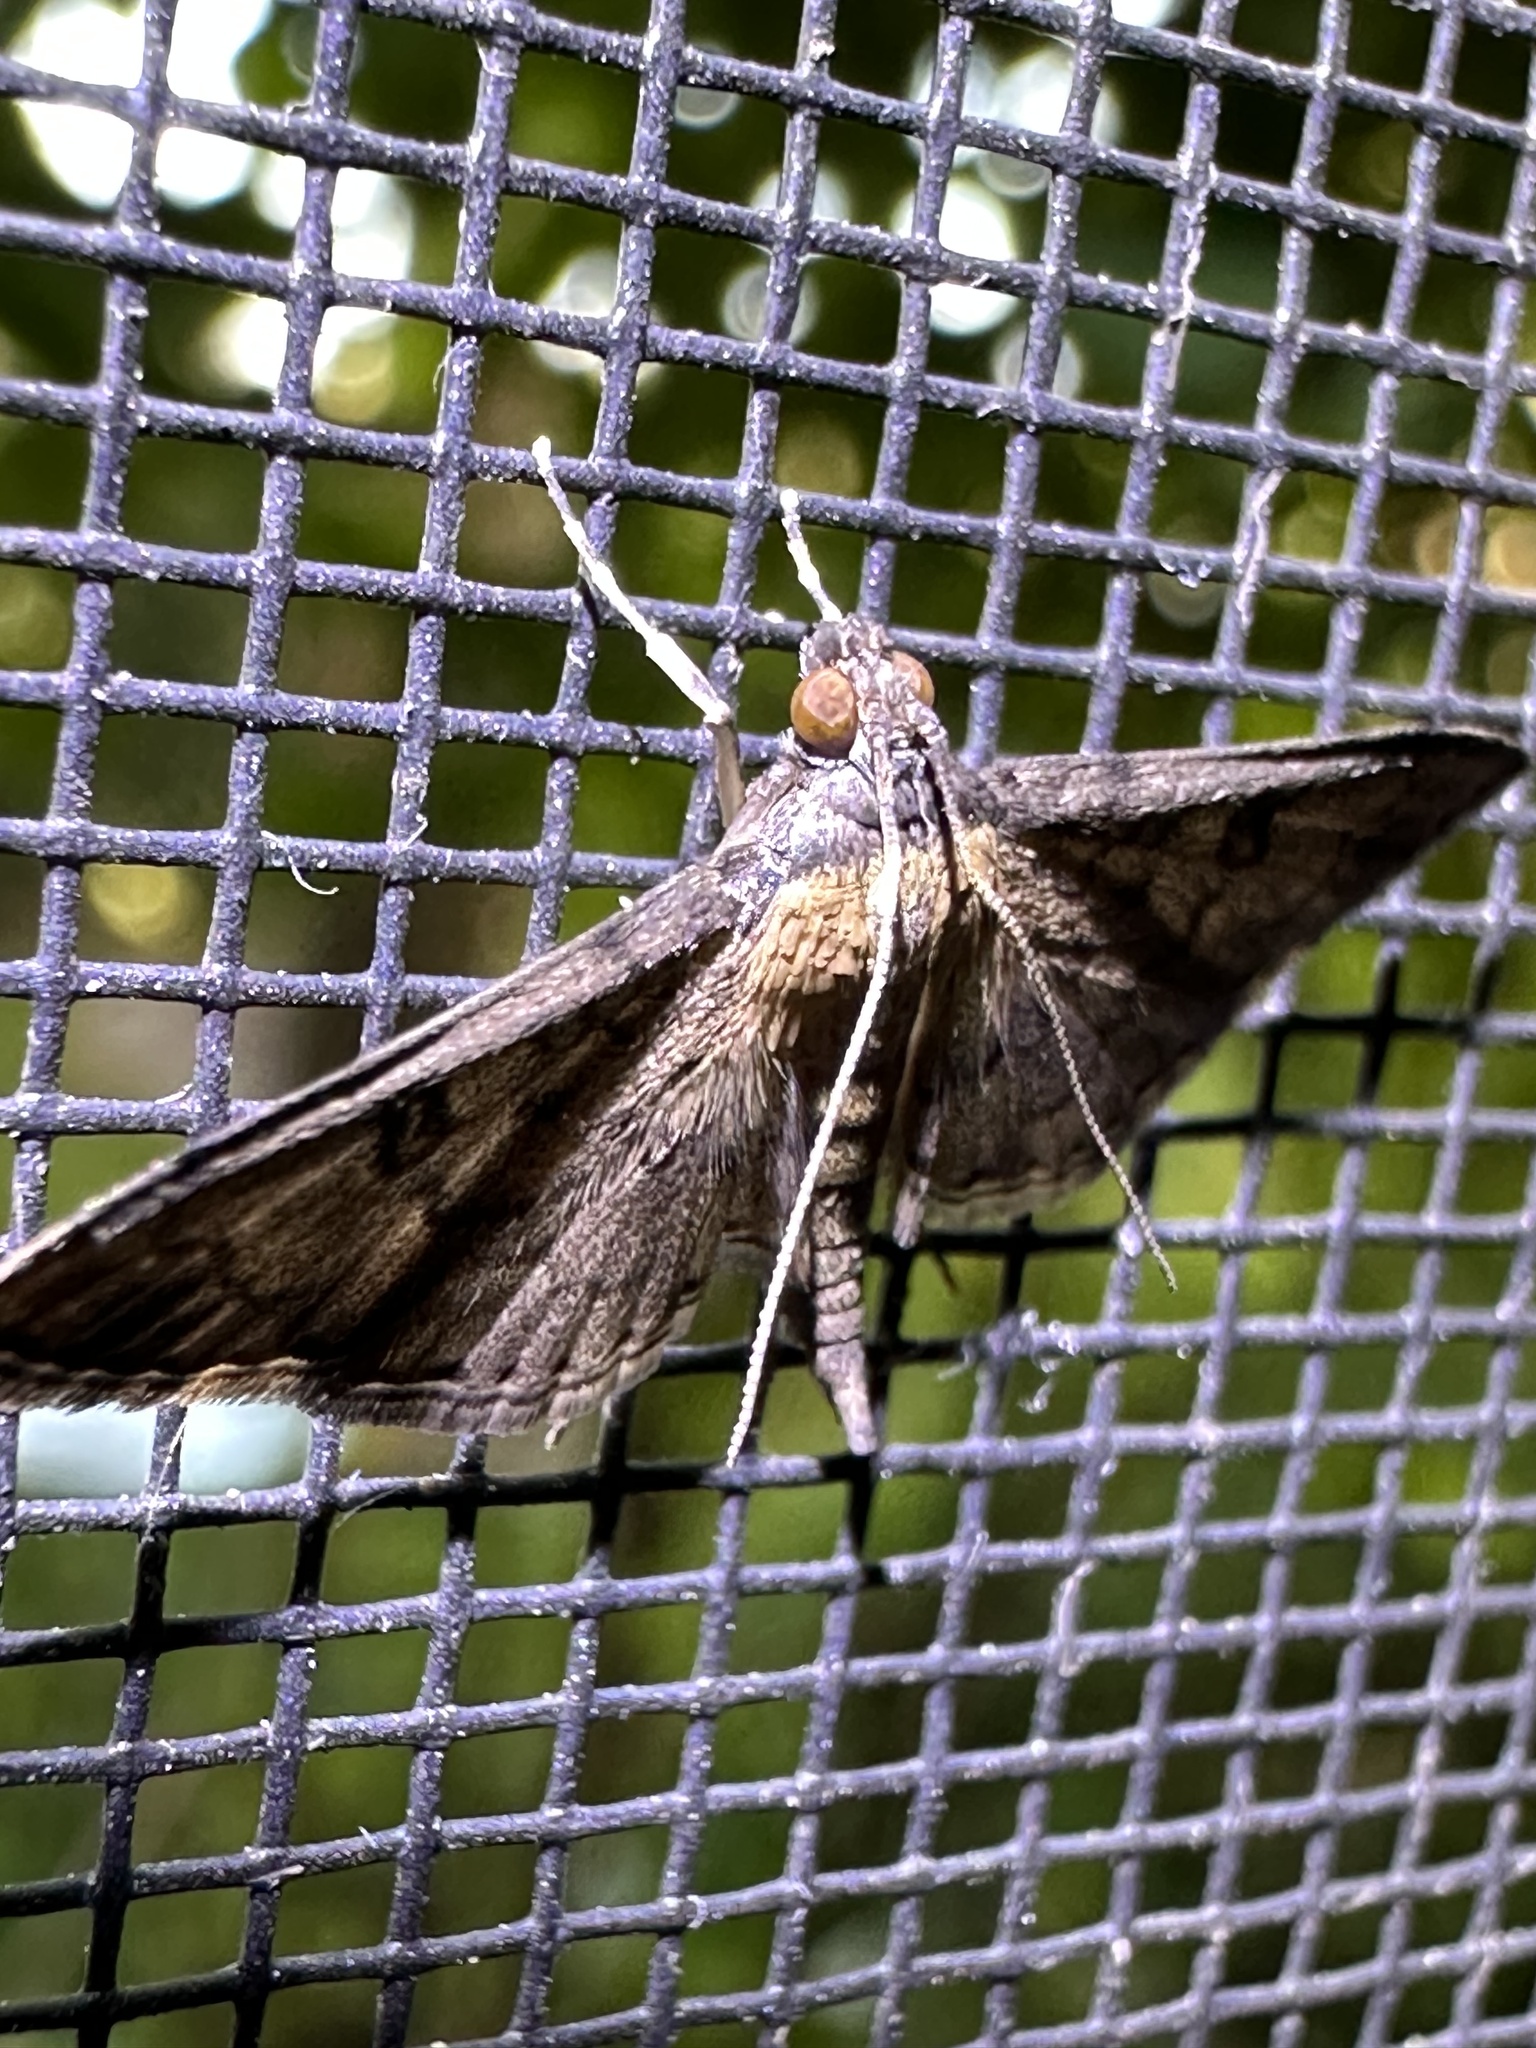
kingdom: Animalia
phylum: Arthropoda
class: Insecta
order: Lepidoptera
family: Crambidae
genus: Nacoleia
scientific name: Nacoleia charesalis
